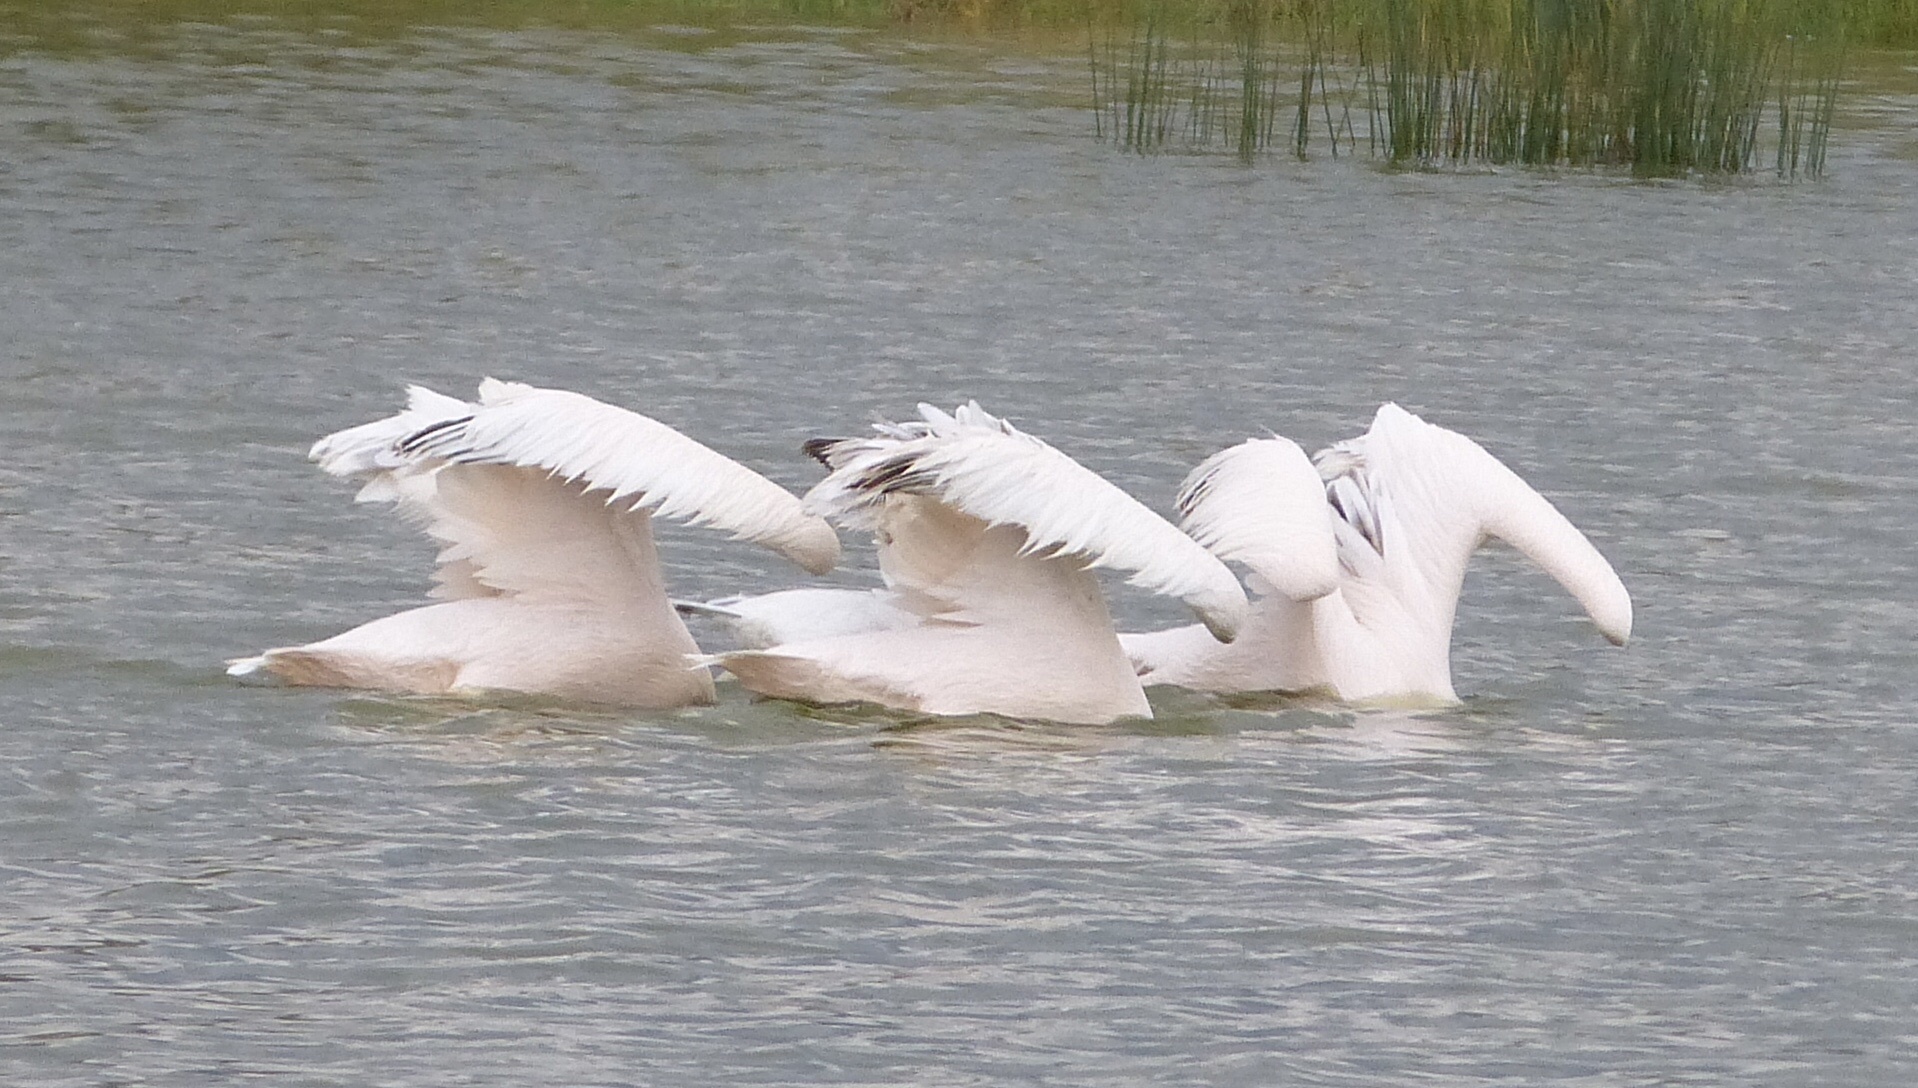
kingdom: Animalia
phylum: Chordata
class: Aves
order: Pelecaniformes
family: Pelecanidae
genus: Pelecanus
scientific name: Pelecanus onocrotalus
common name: Great white pelican
